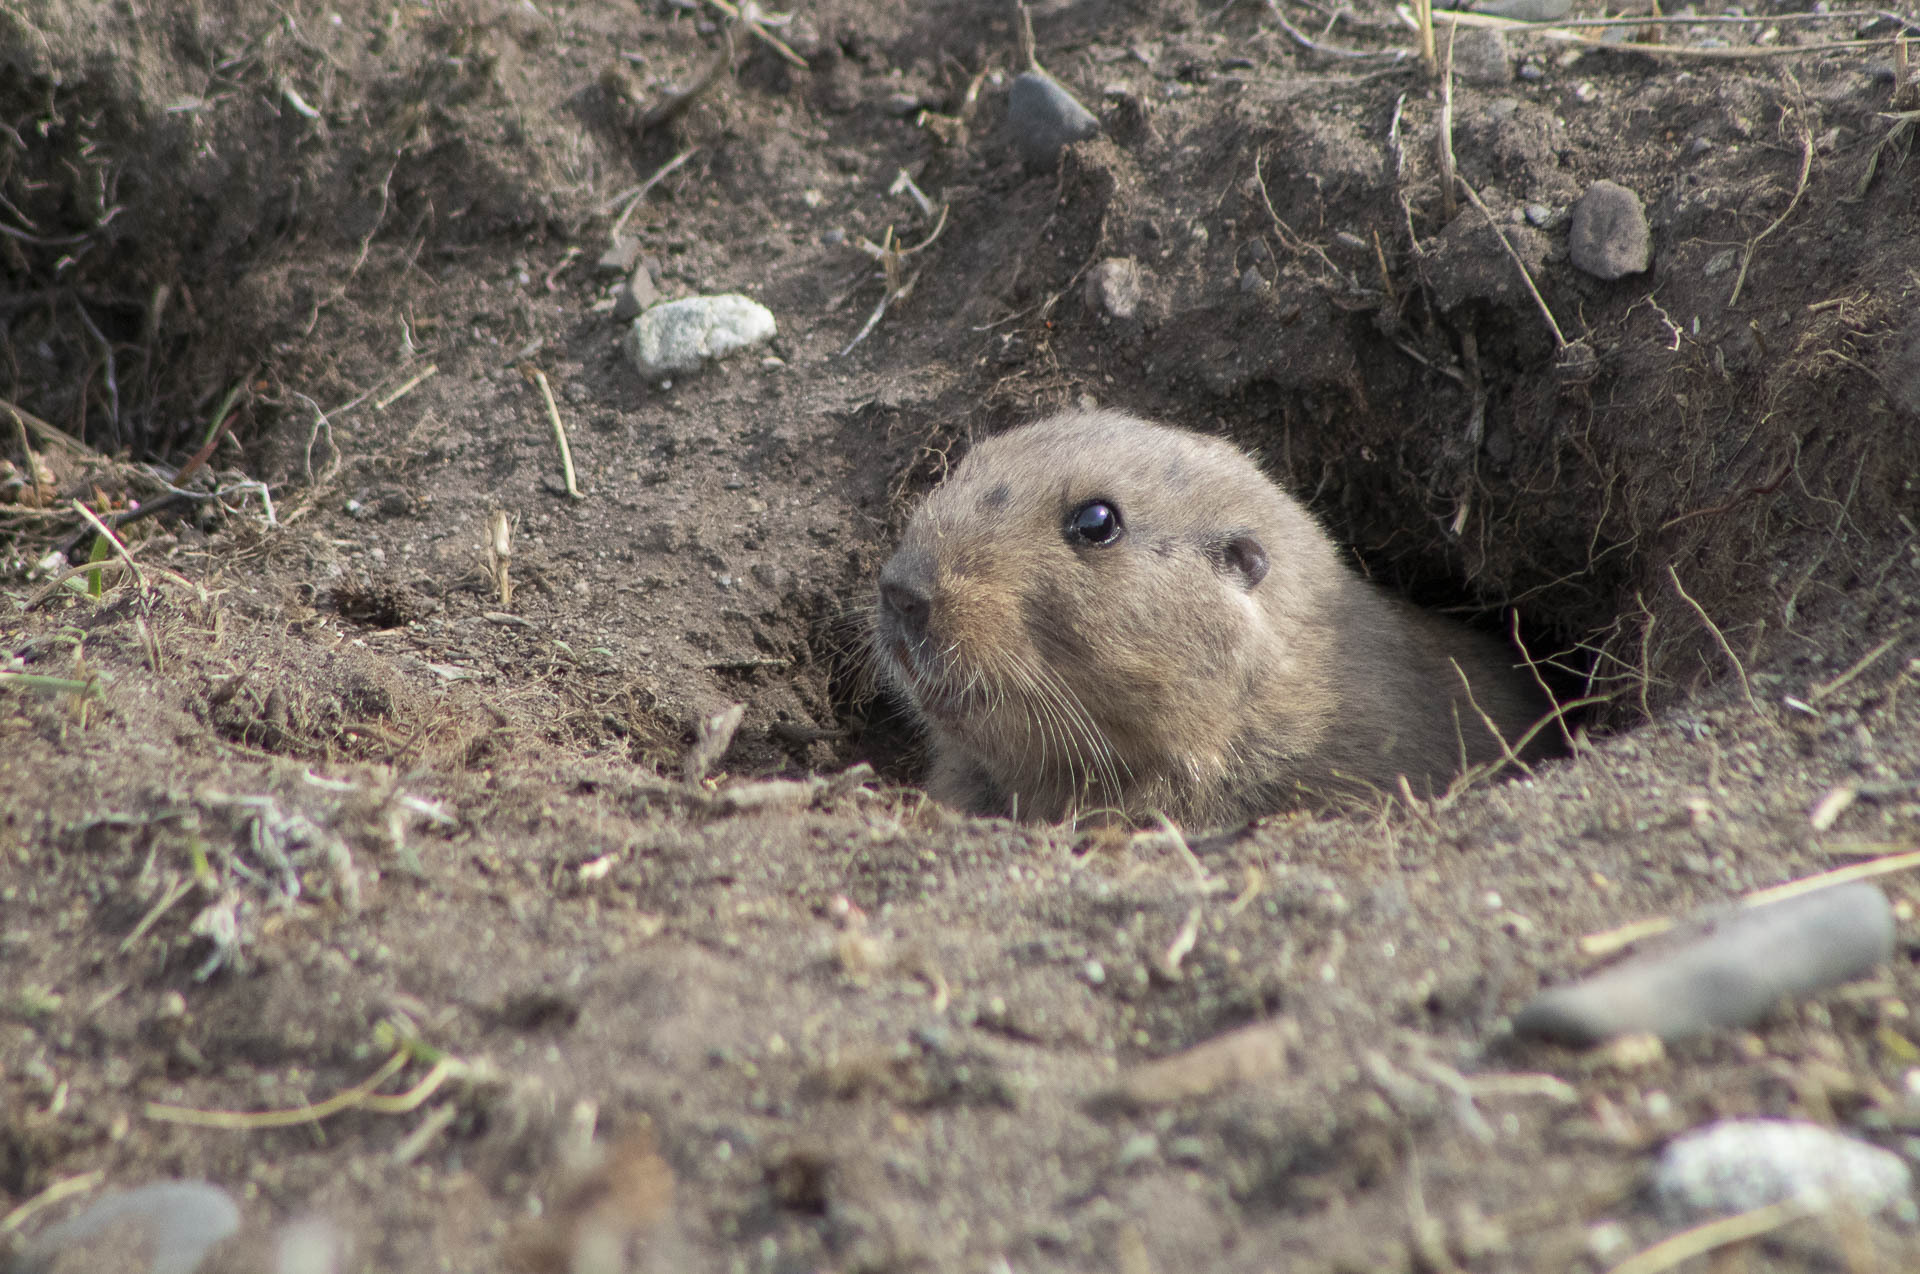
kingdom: Animalia
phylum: Chordata
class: Mammalia
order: Rodentia
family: Ctenomyidae
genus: Ctenomys
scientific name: Ctenomys magellanicus
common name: Magellanic tuco-tuco
